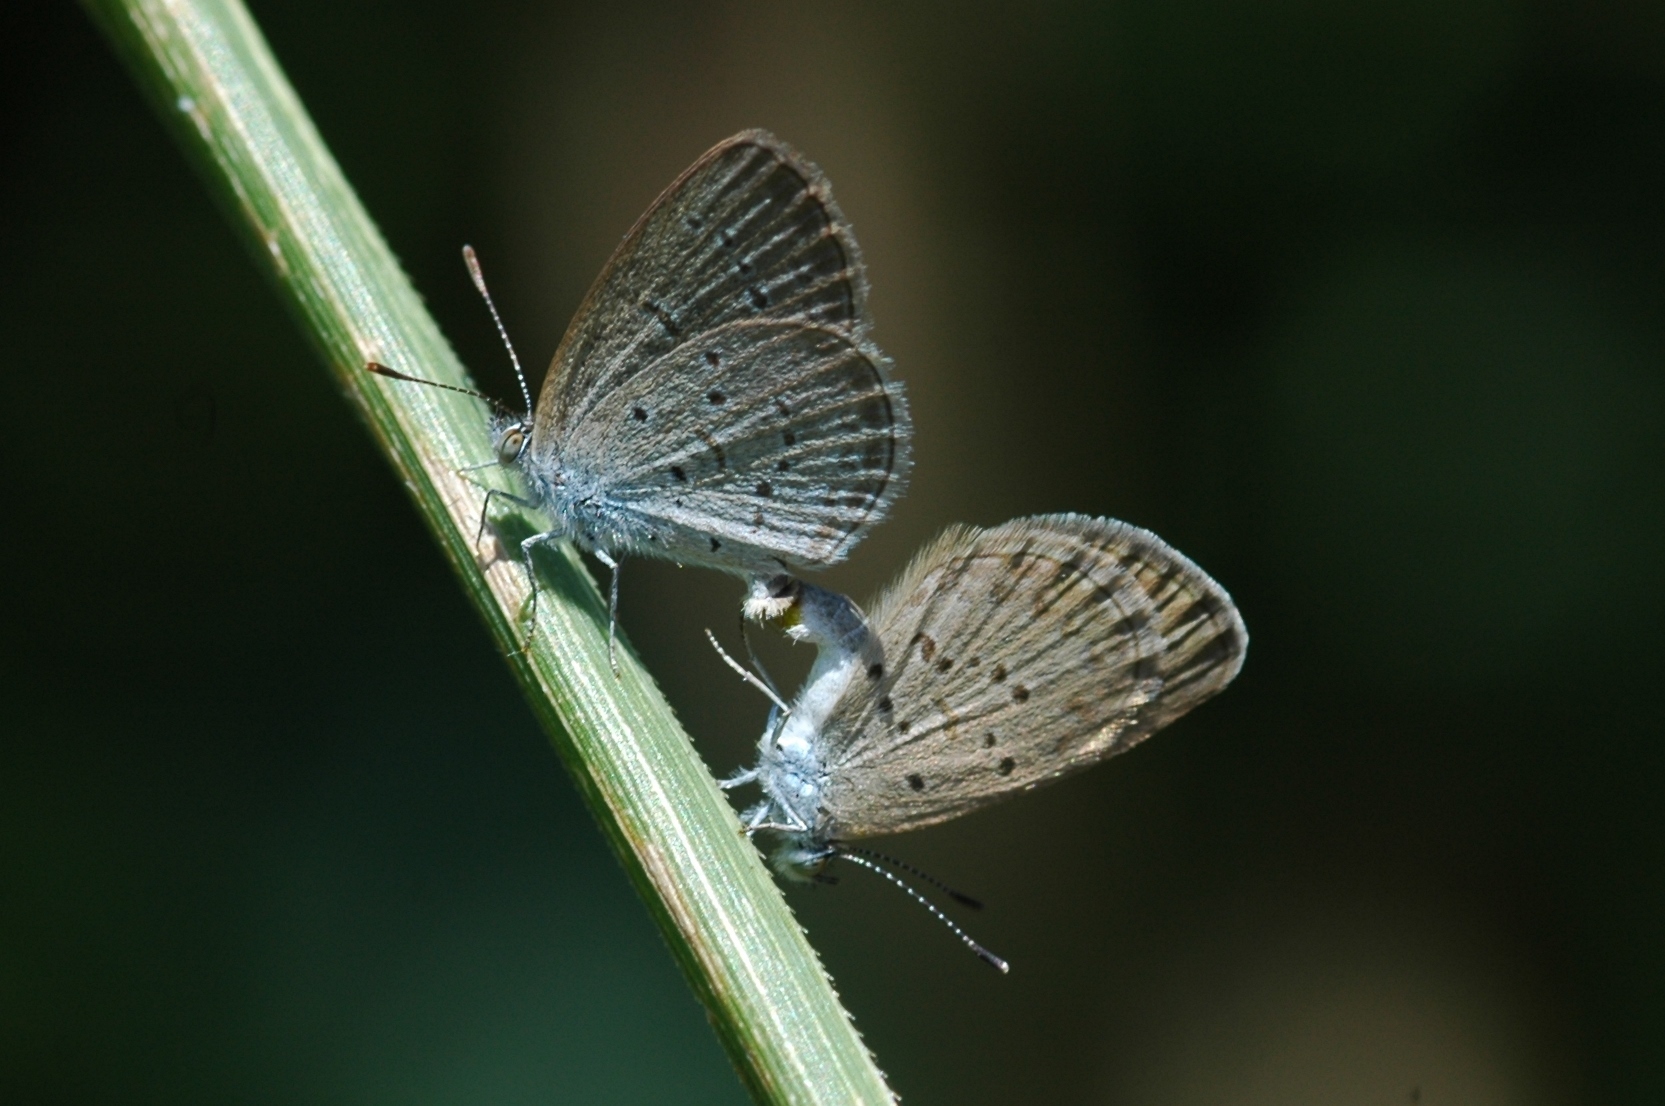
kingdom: Animalia
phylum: Arthropoda
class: Insecta
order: Lepidoptera
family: Lycaenidae
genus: Zizina
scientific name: Zizina otis
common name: Lesser grass blue
